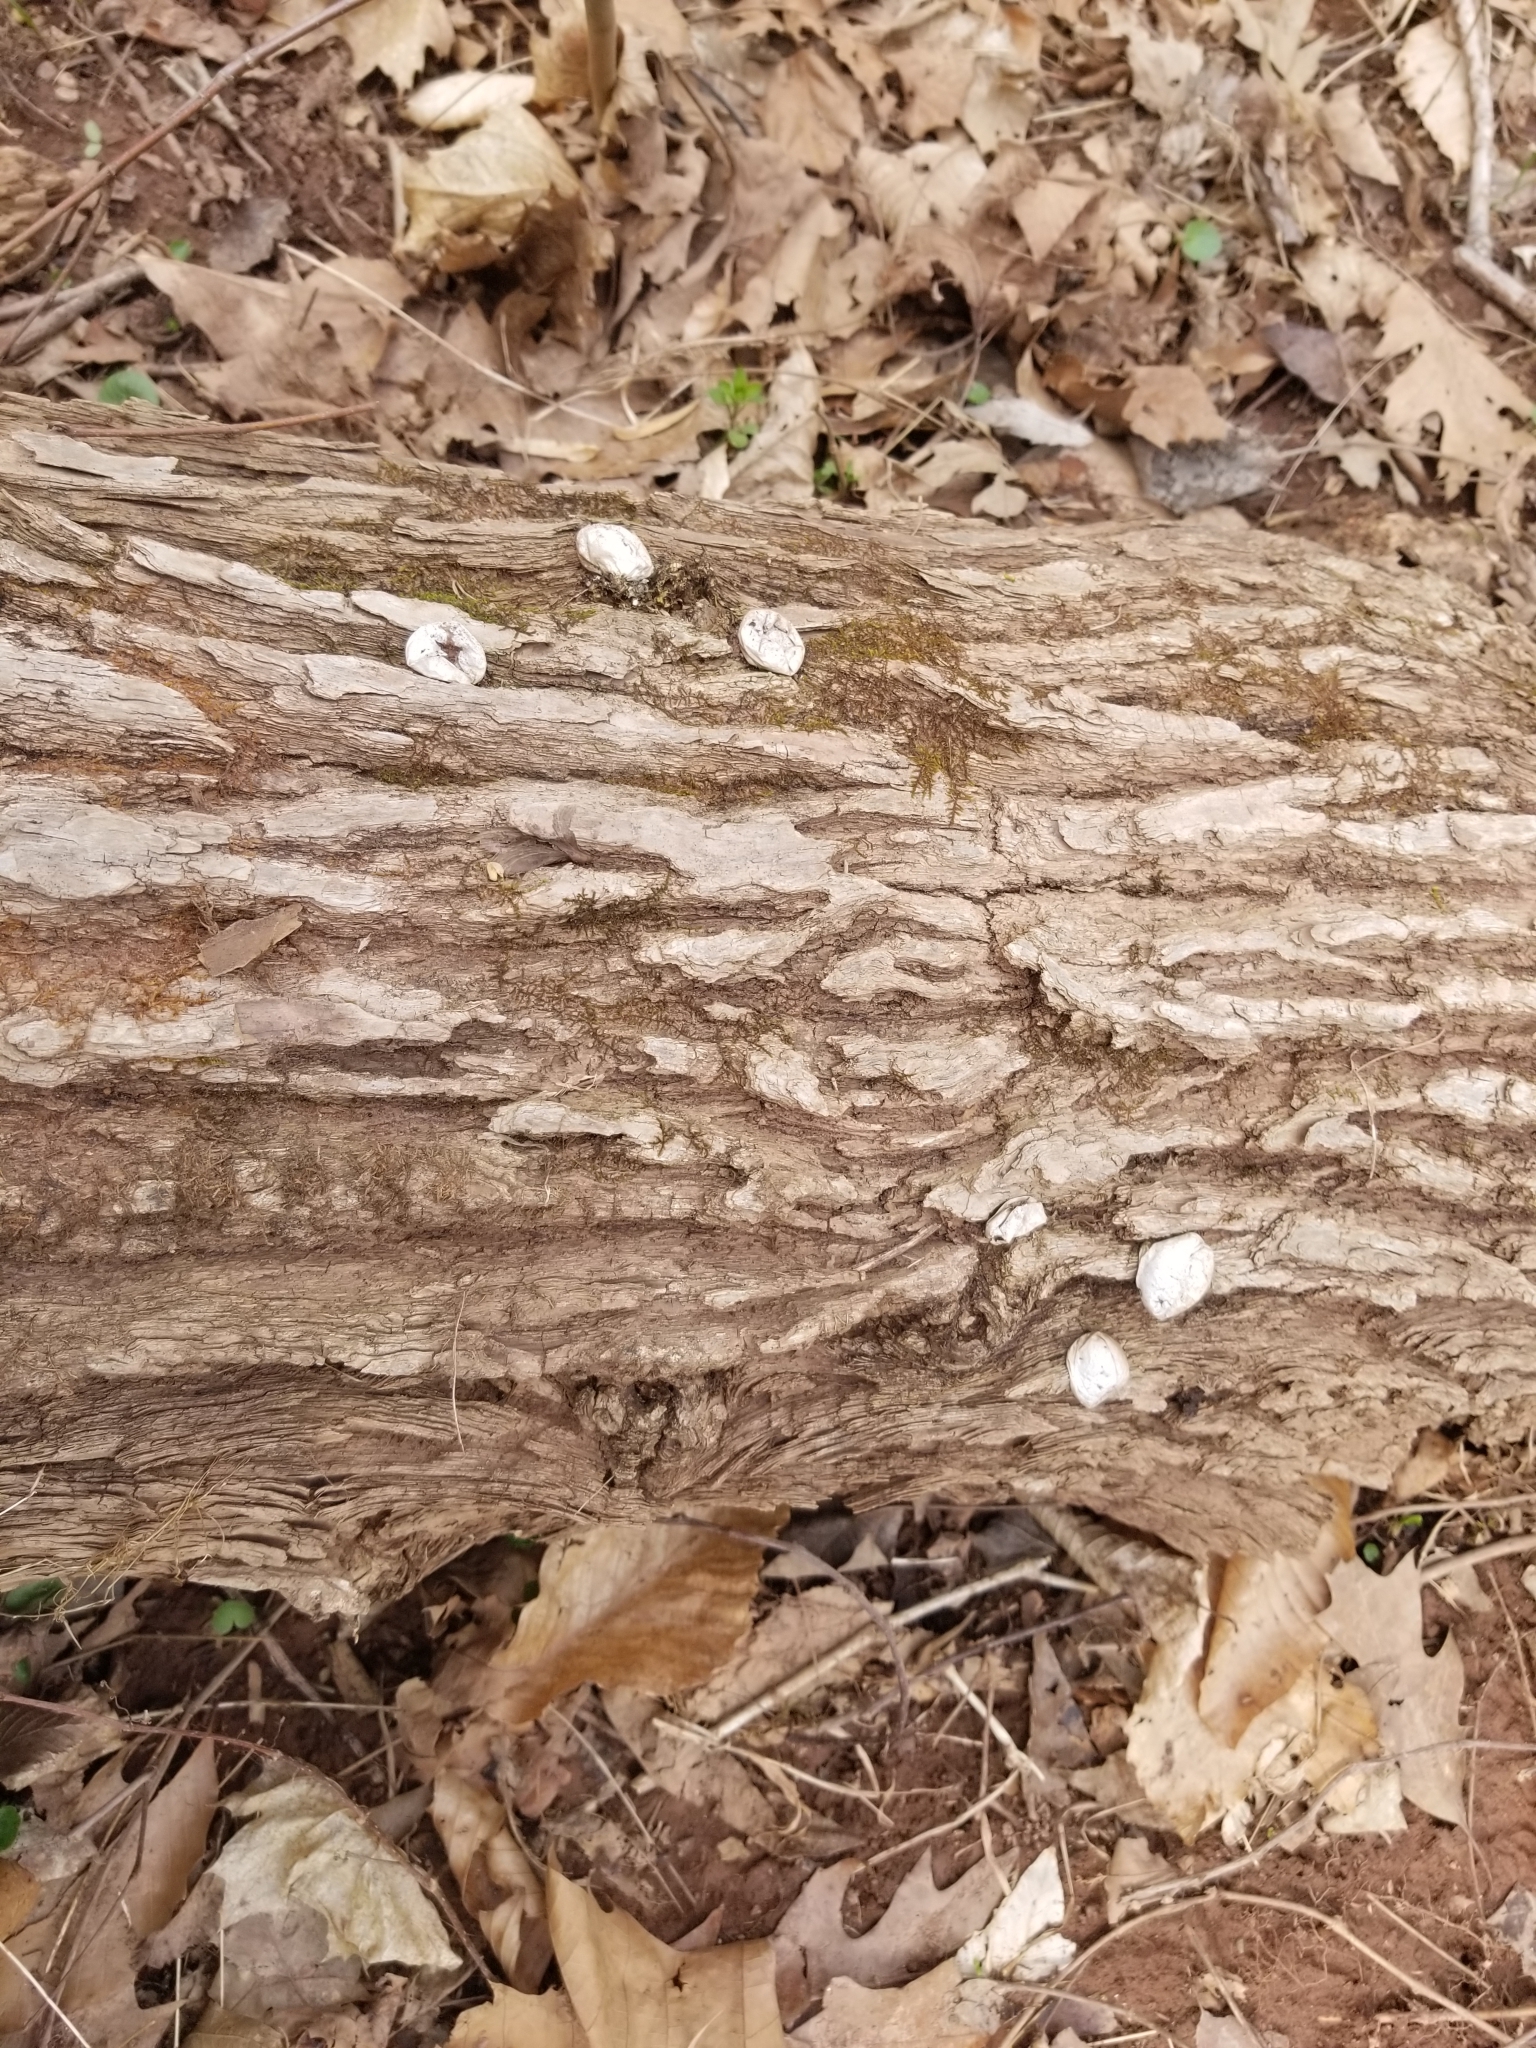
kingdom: Fungi
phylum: Basidiomycota
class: Agaricomycetes
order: Agaricales
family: Lycoperdaceae
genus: Apioperdon
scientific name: Apioperdon pyriforme
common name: Pear-shaped puffball
